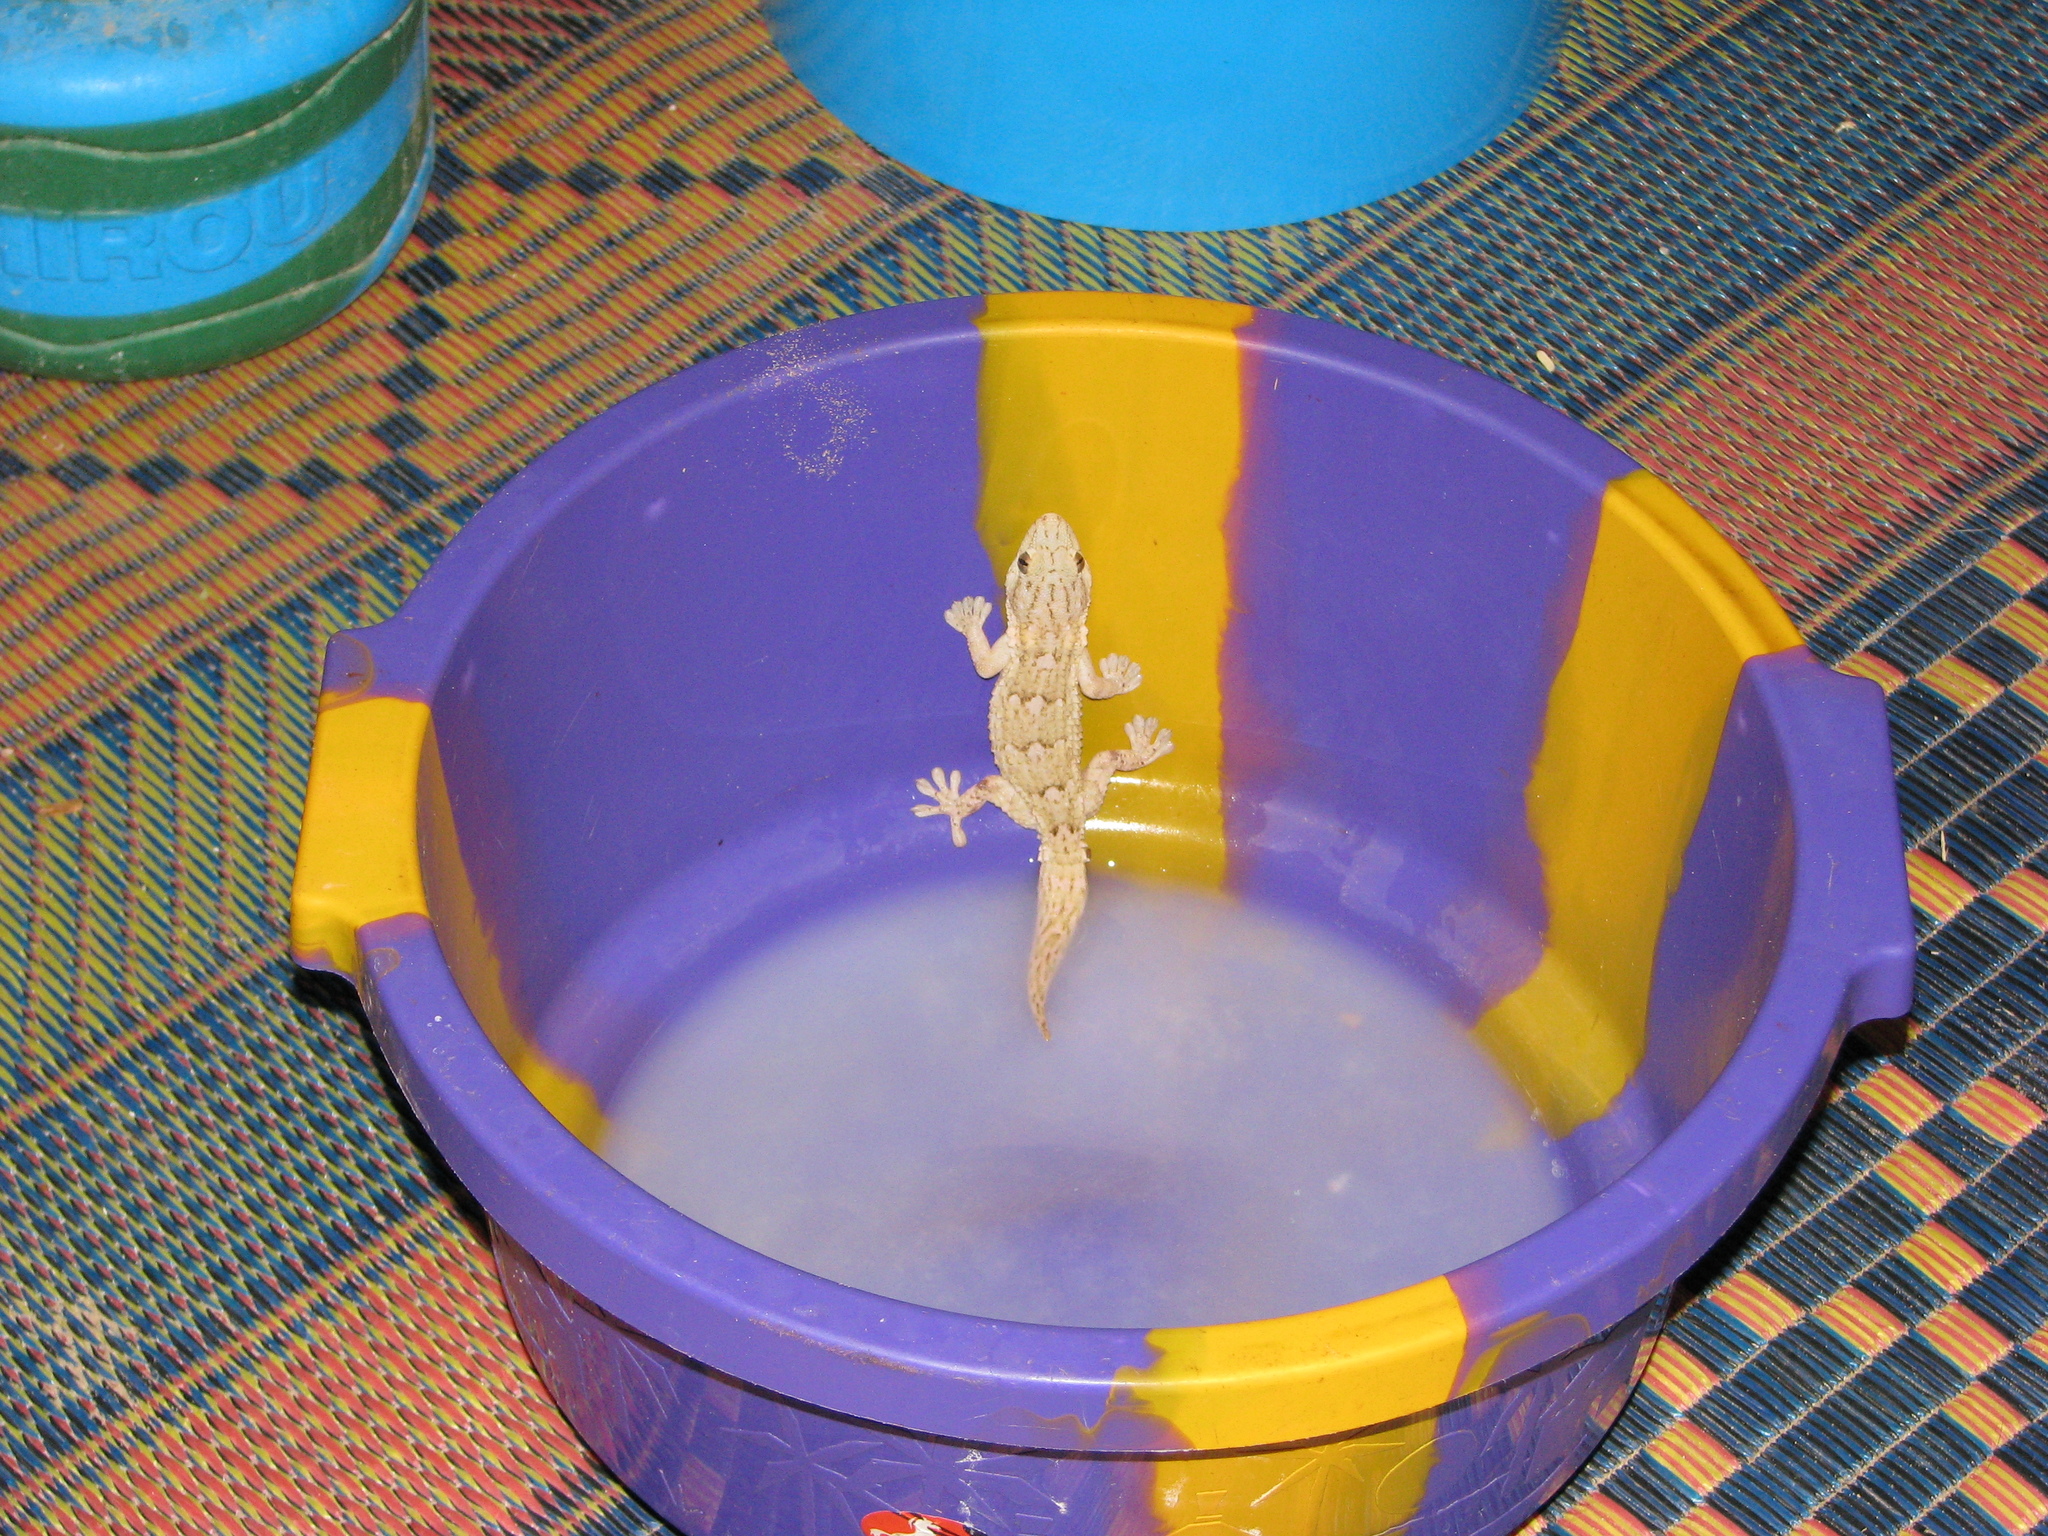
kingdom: Animalia
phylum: Chordata
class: Squamata
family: Phyllodactylidae
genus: Tarentola
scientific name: Tarentola annularis
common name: White-spotted wall gecko
